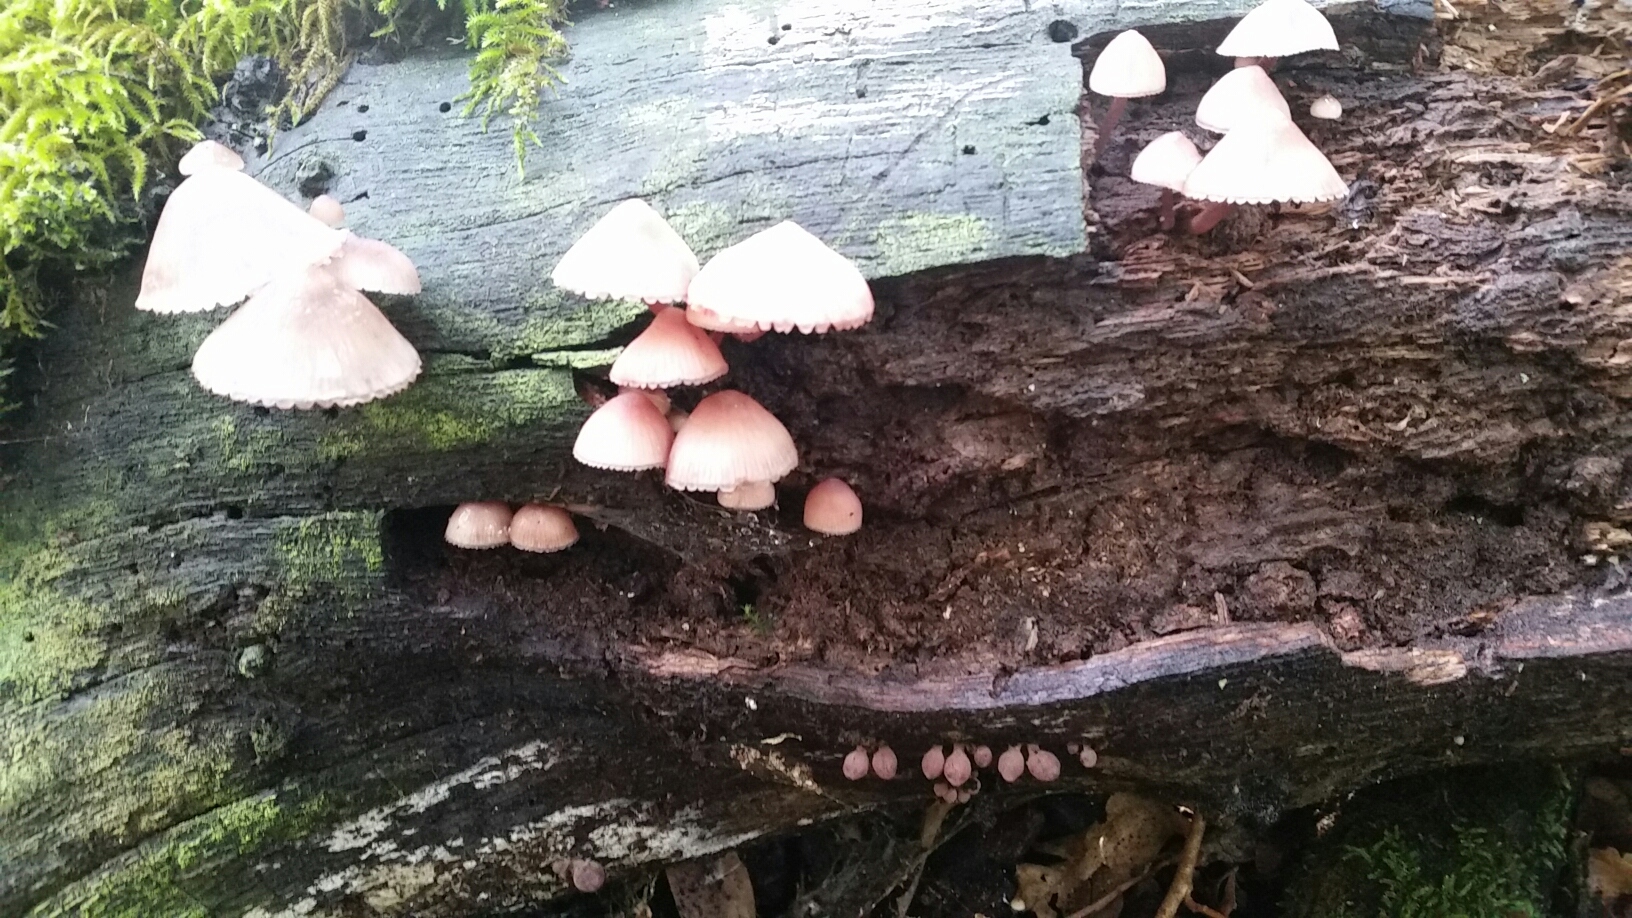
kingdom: Fungi
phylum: Basidiomycota
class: Agaricomycetes
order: Agaricales
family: Mycenaceae
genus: Mycena
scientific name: Mycena haematopus
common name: Burgundydrop bonnet
